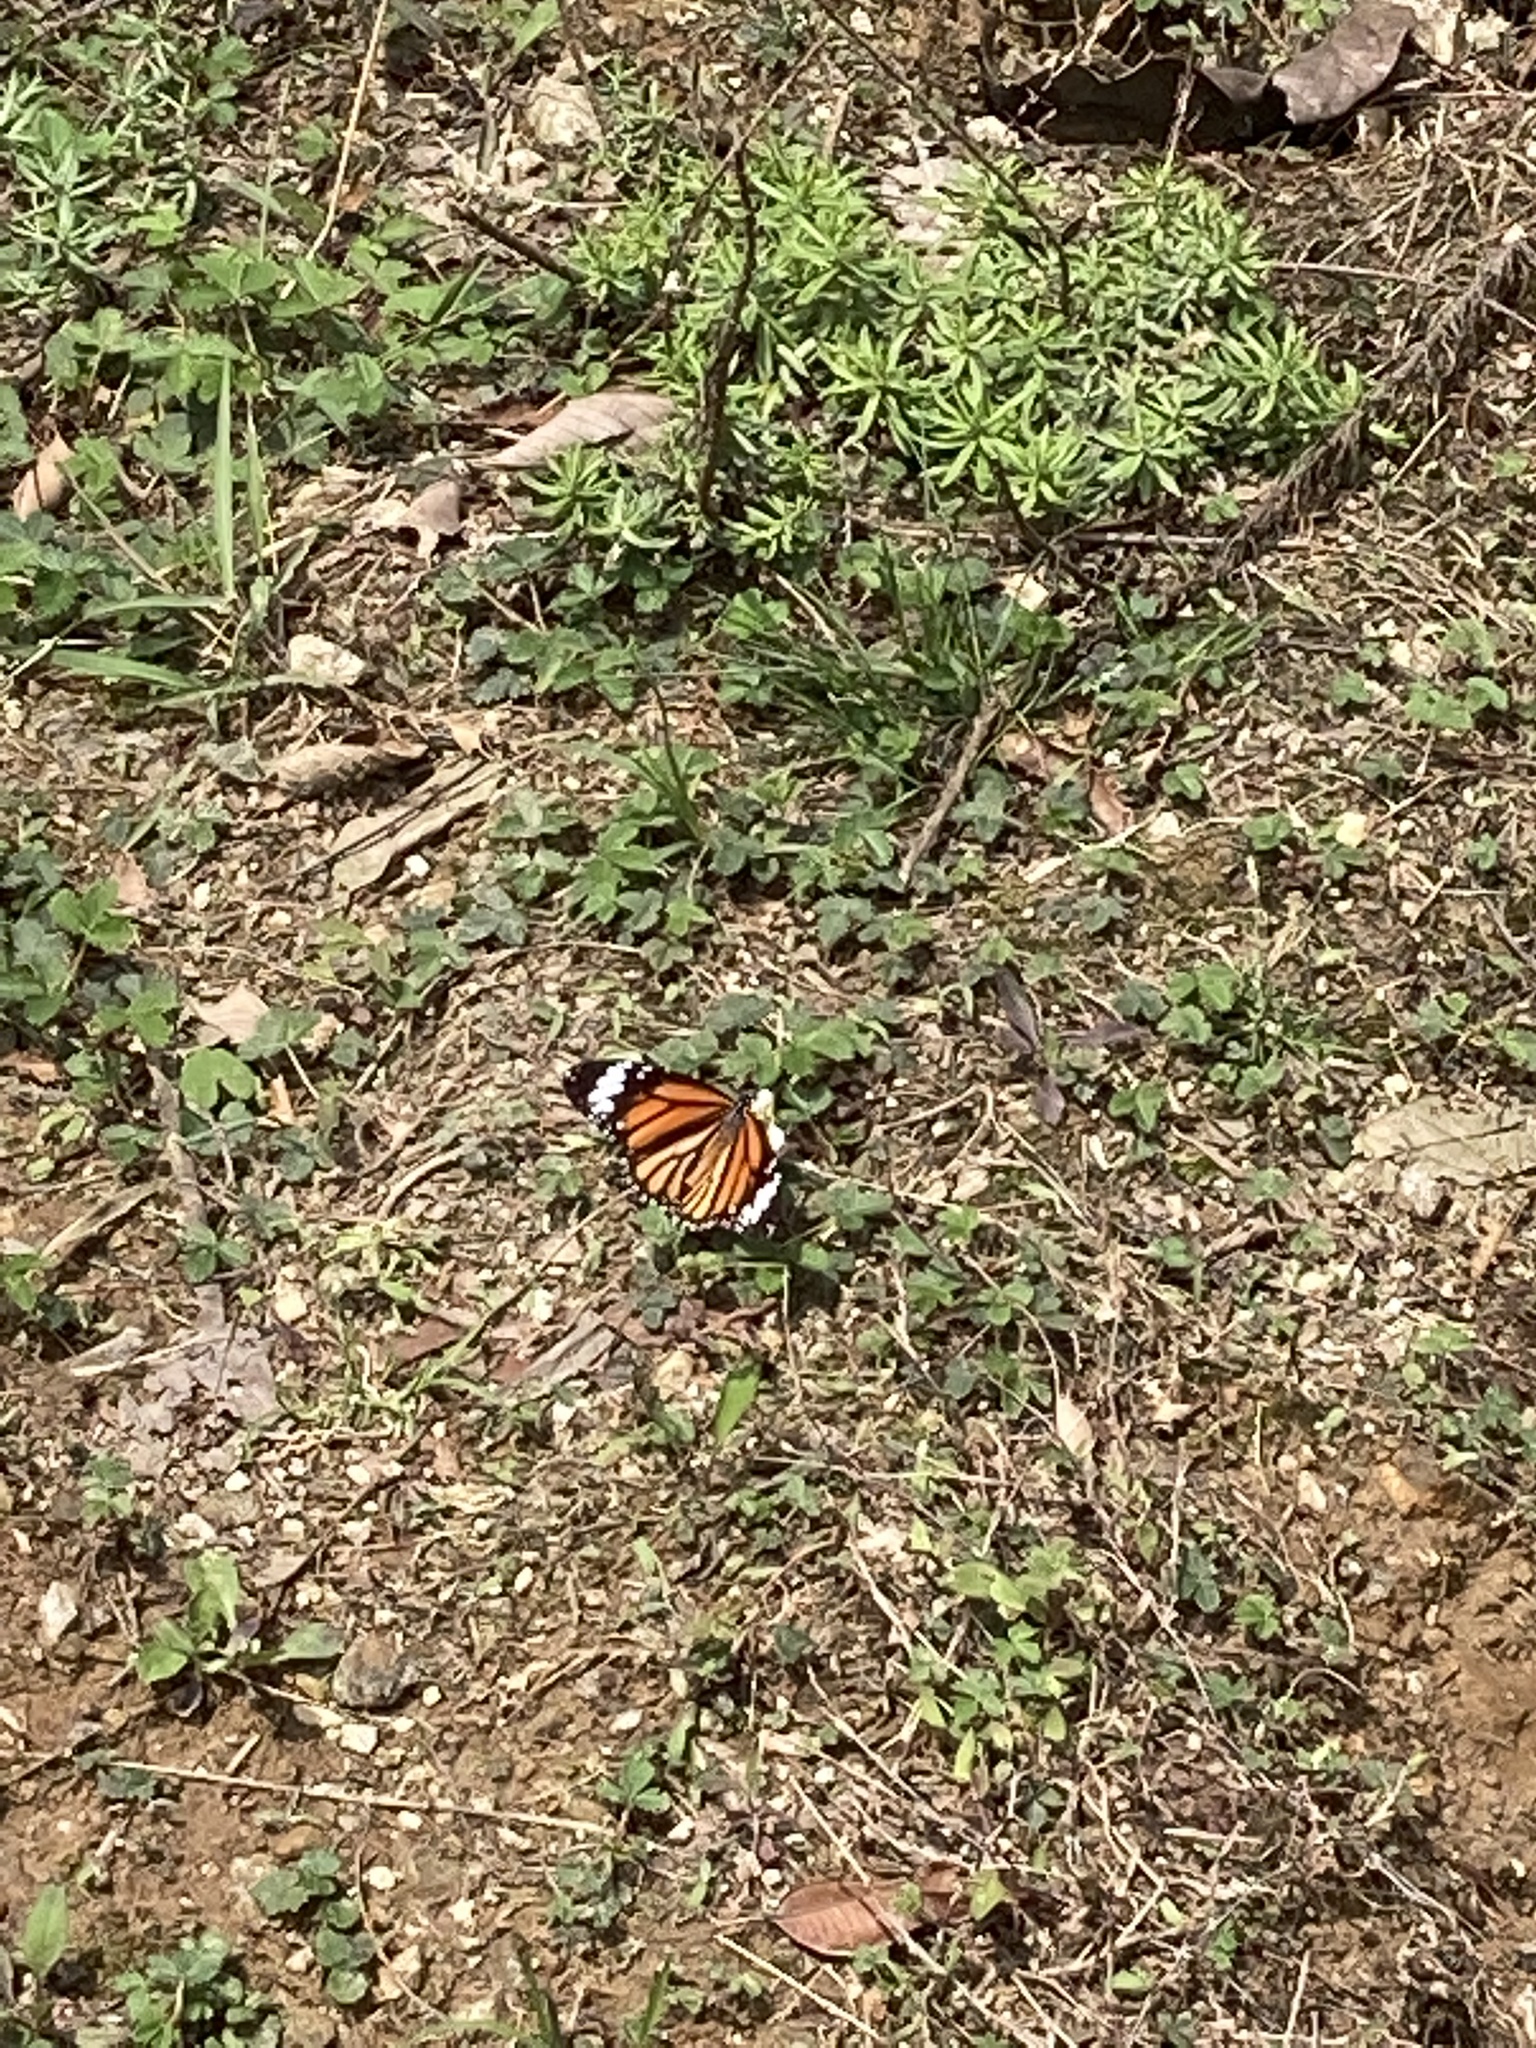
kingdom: Animalia
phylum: Arthropoda
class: Insecta
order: Lepidoptera
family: Nymphalidae
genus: Danaus
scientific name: Danaus genutia
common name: Common tiger butterfly
